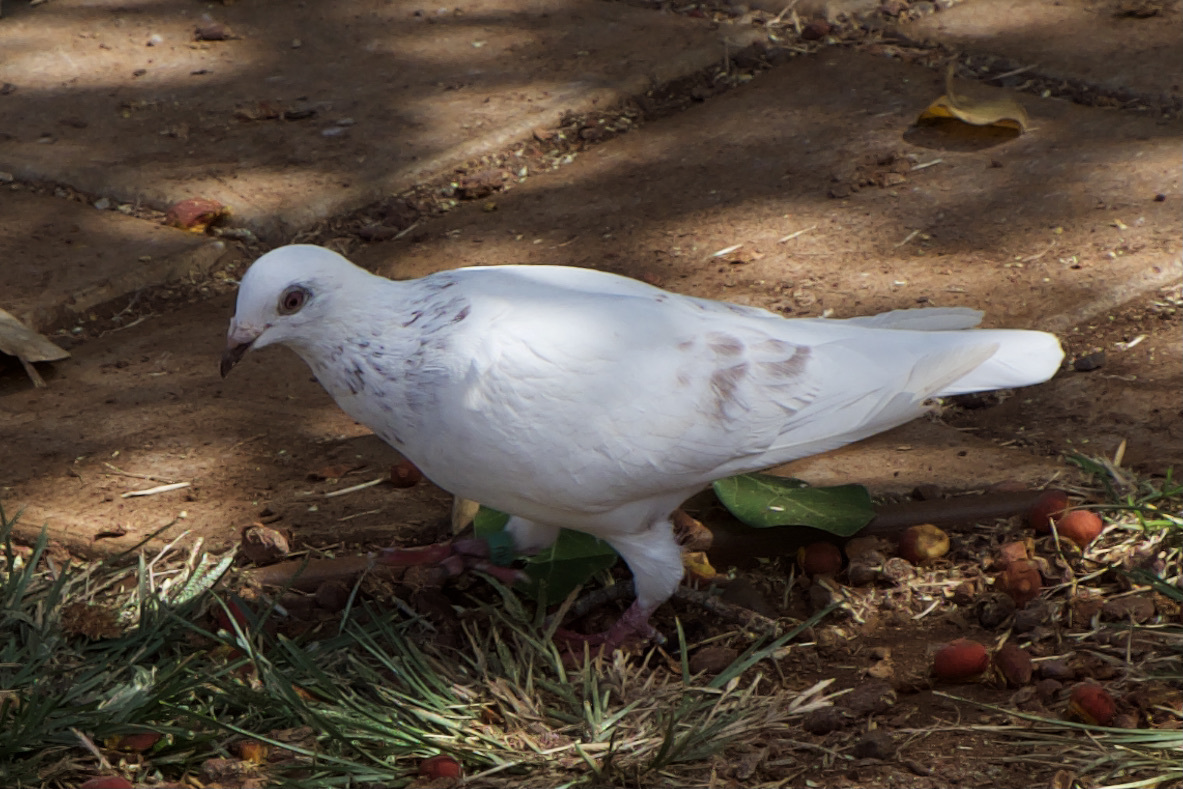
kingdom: Animalia
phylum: Chordata
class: Aves
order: Columbiformes
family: Columbidae
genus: Columba
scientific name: Columba livia
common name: Rock pigeon
